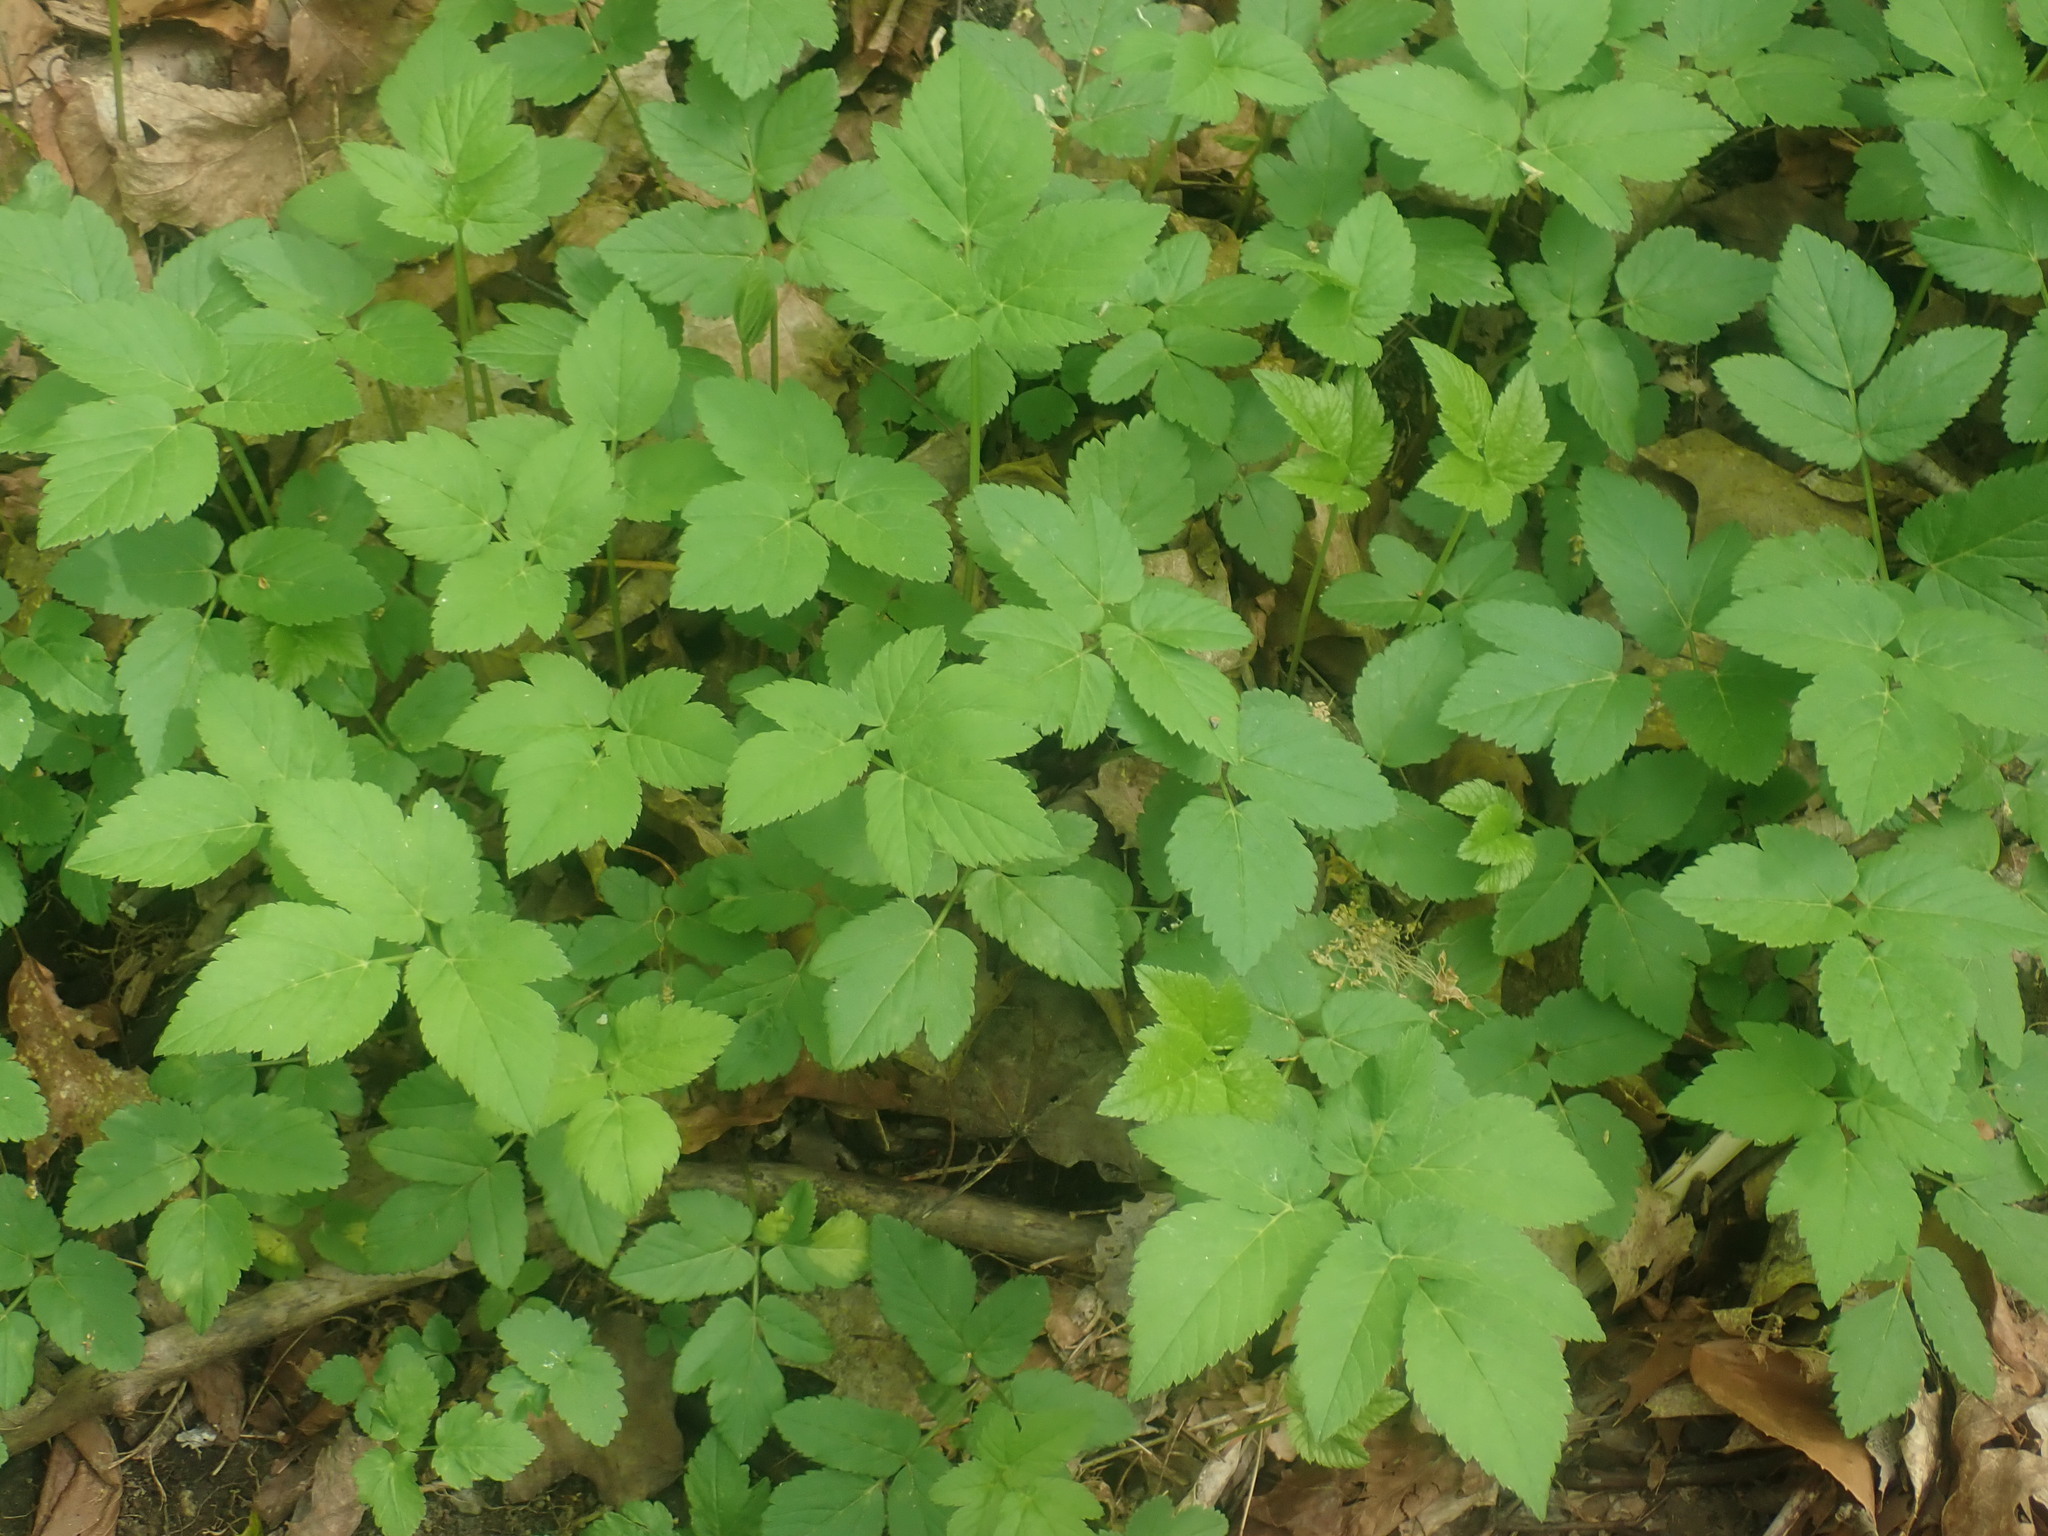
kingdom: Plantae
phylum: Tracheophyta
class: Magnoliopsida
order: Apiales
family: Apiaceae
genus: Aegopodium
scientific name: Aegopodium podagraria
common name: Ground-elder
